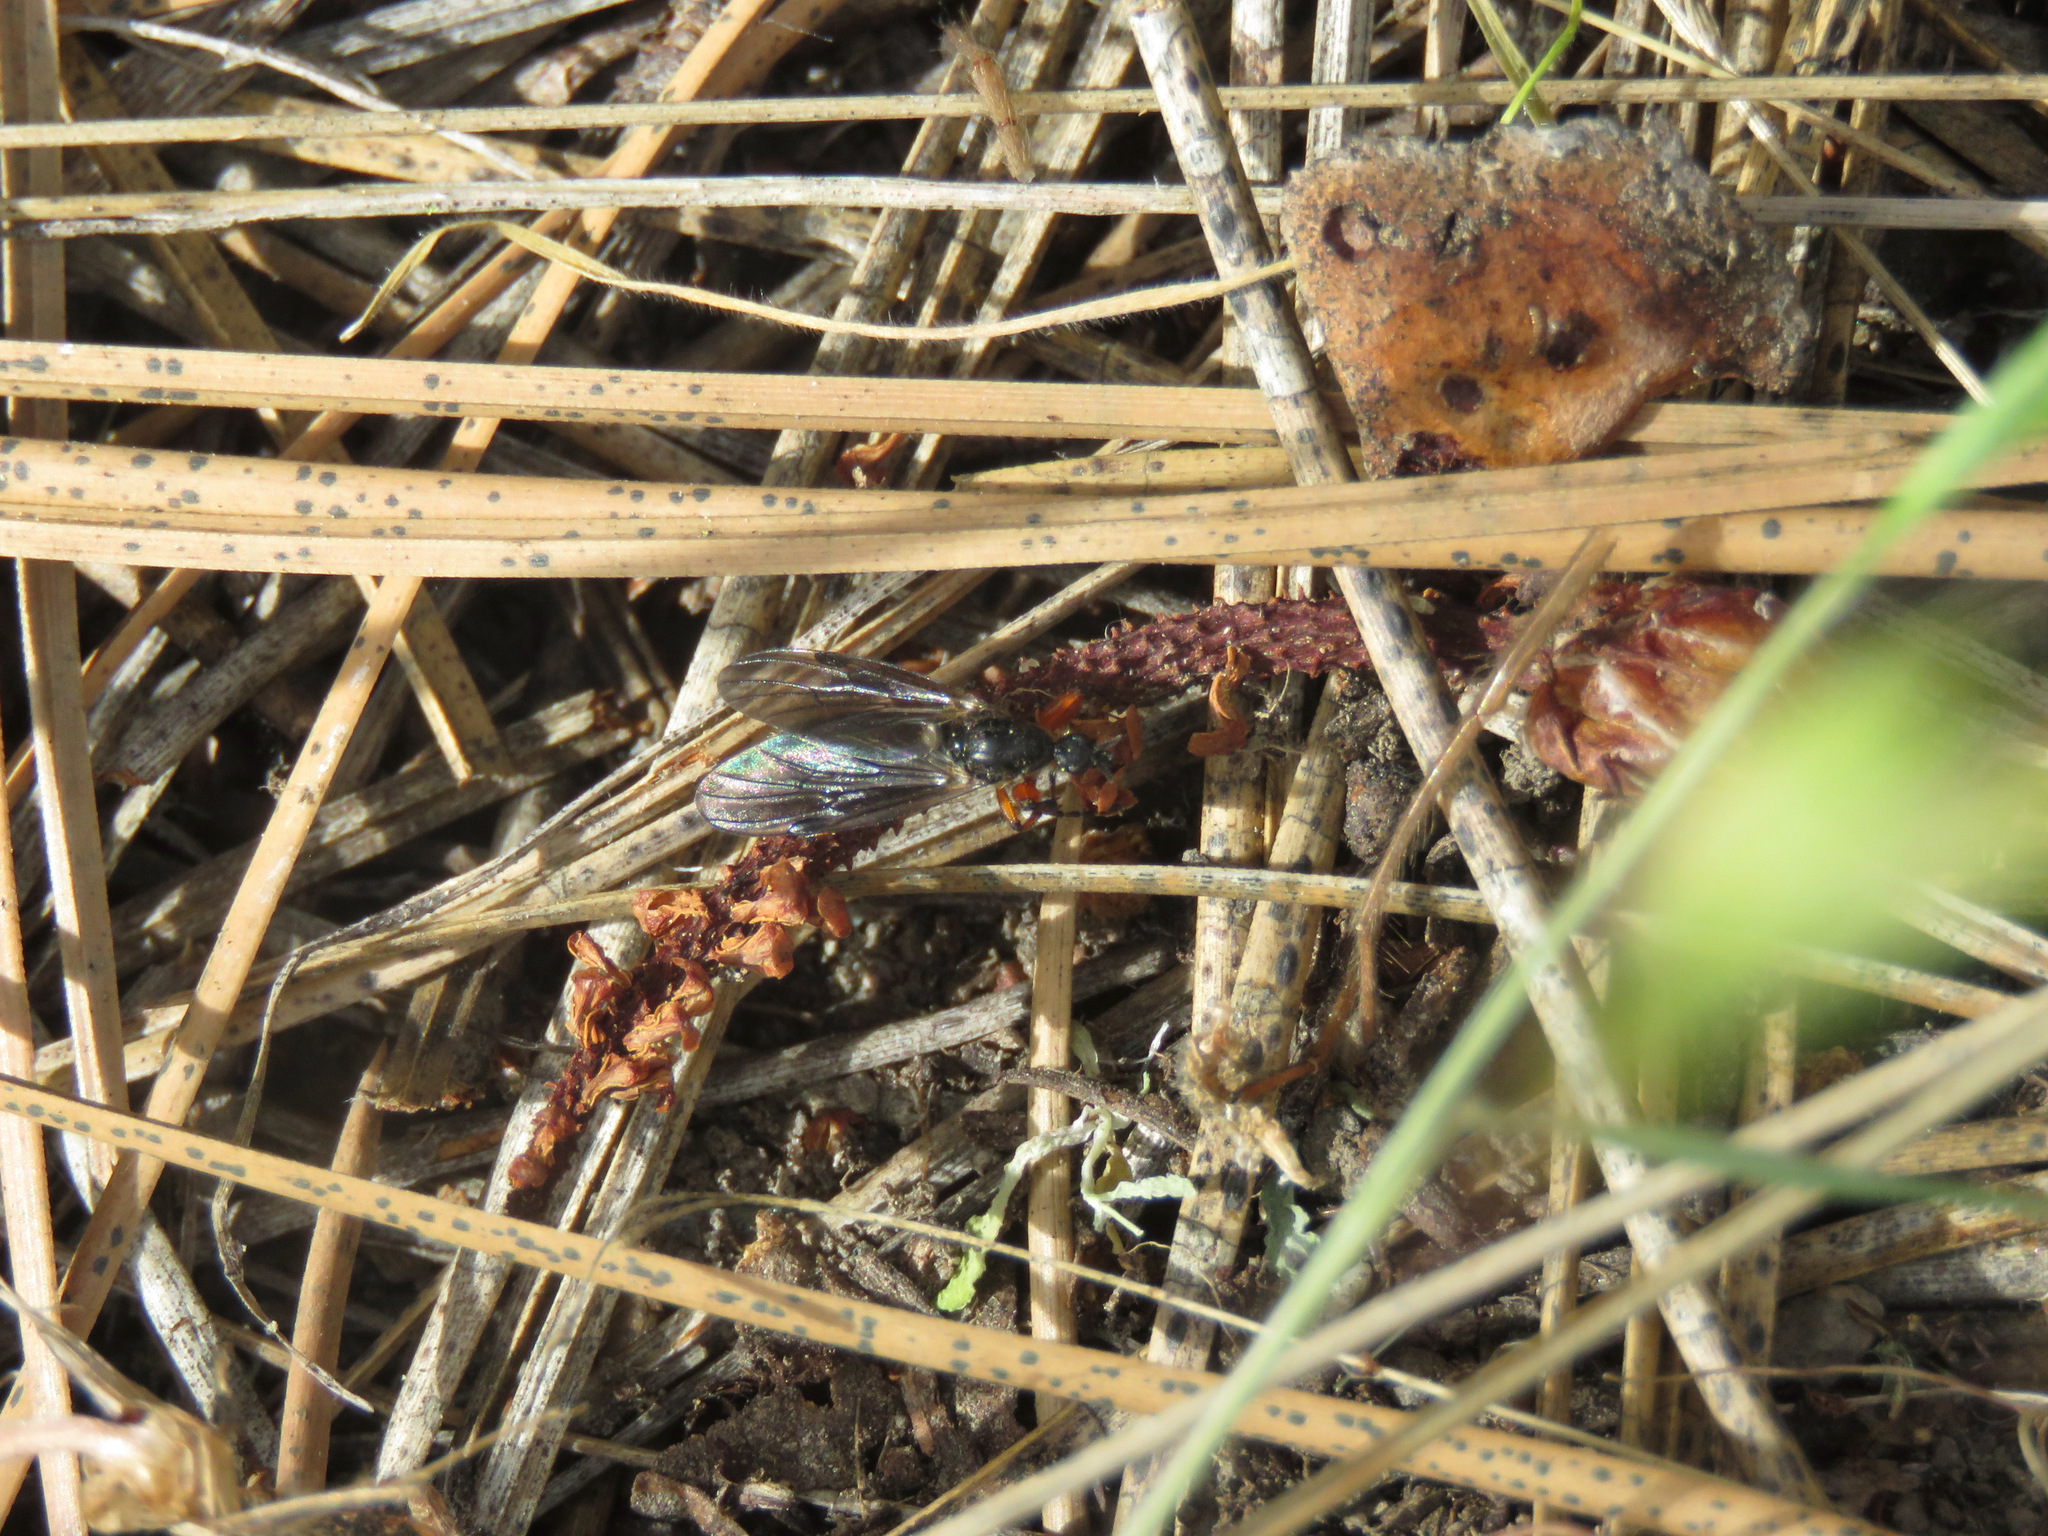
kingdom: Animalia
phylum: Arthropoda
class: Insecta
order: Diptera
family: Bibionidae
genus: Bibio
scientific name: Bibio
